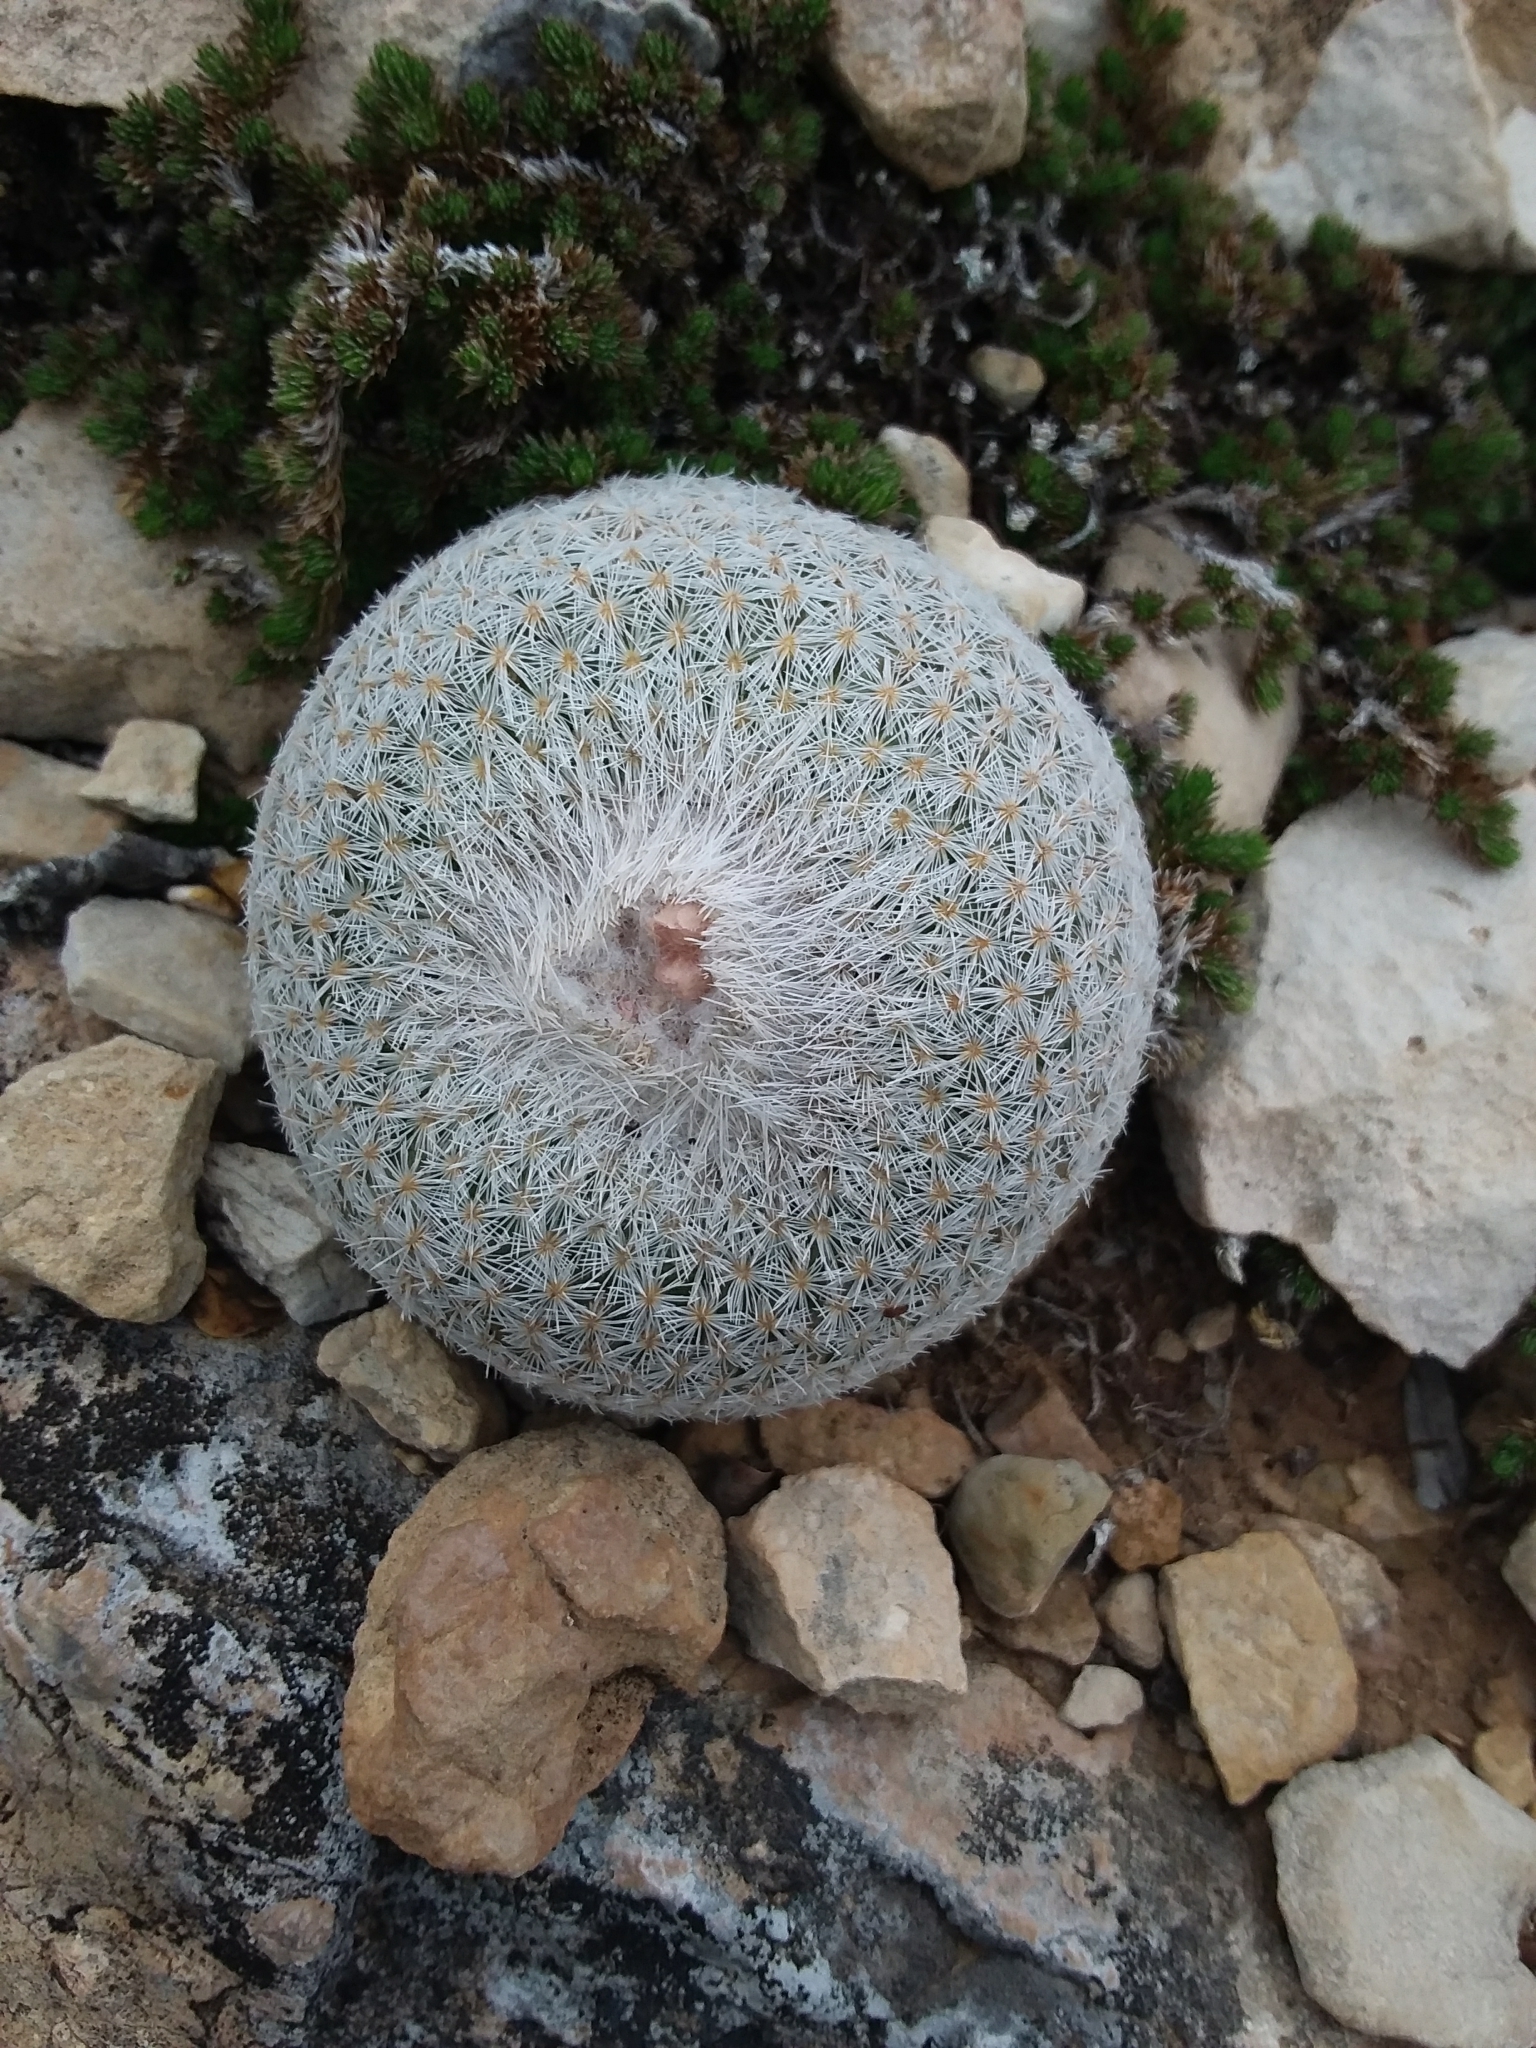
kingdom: Plantae
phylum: Tracheophyta
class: Magnoliopsida
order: Caryophyllales
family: Cactaceae
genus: Epithelantha
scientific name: Epithelantha micromeris
